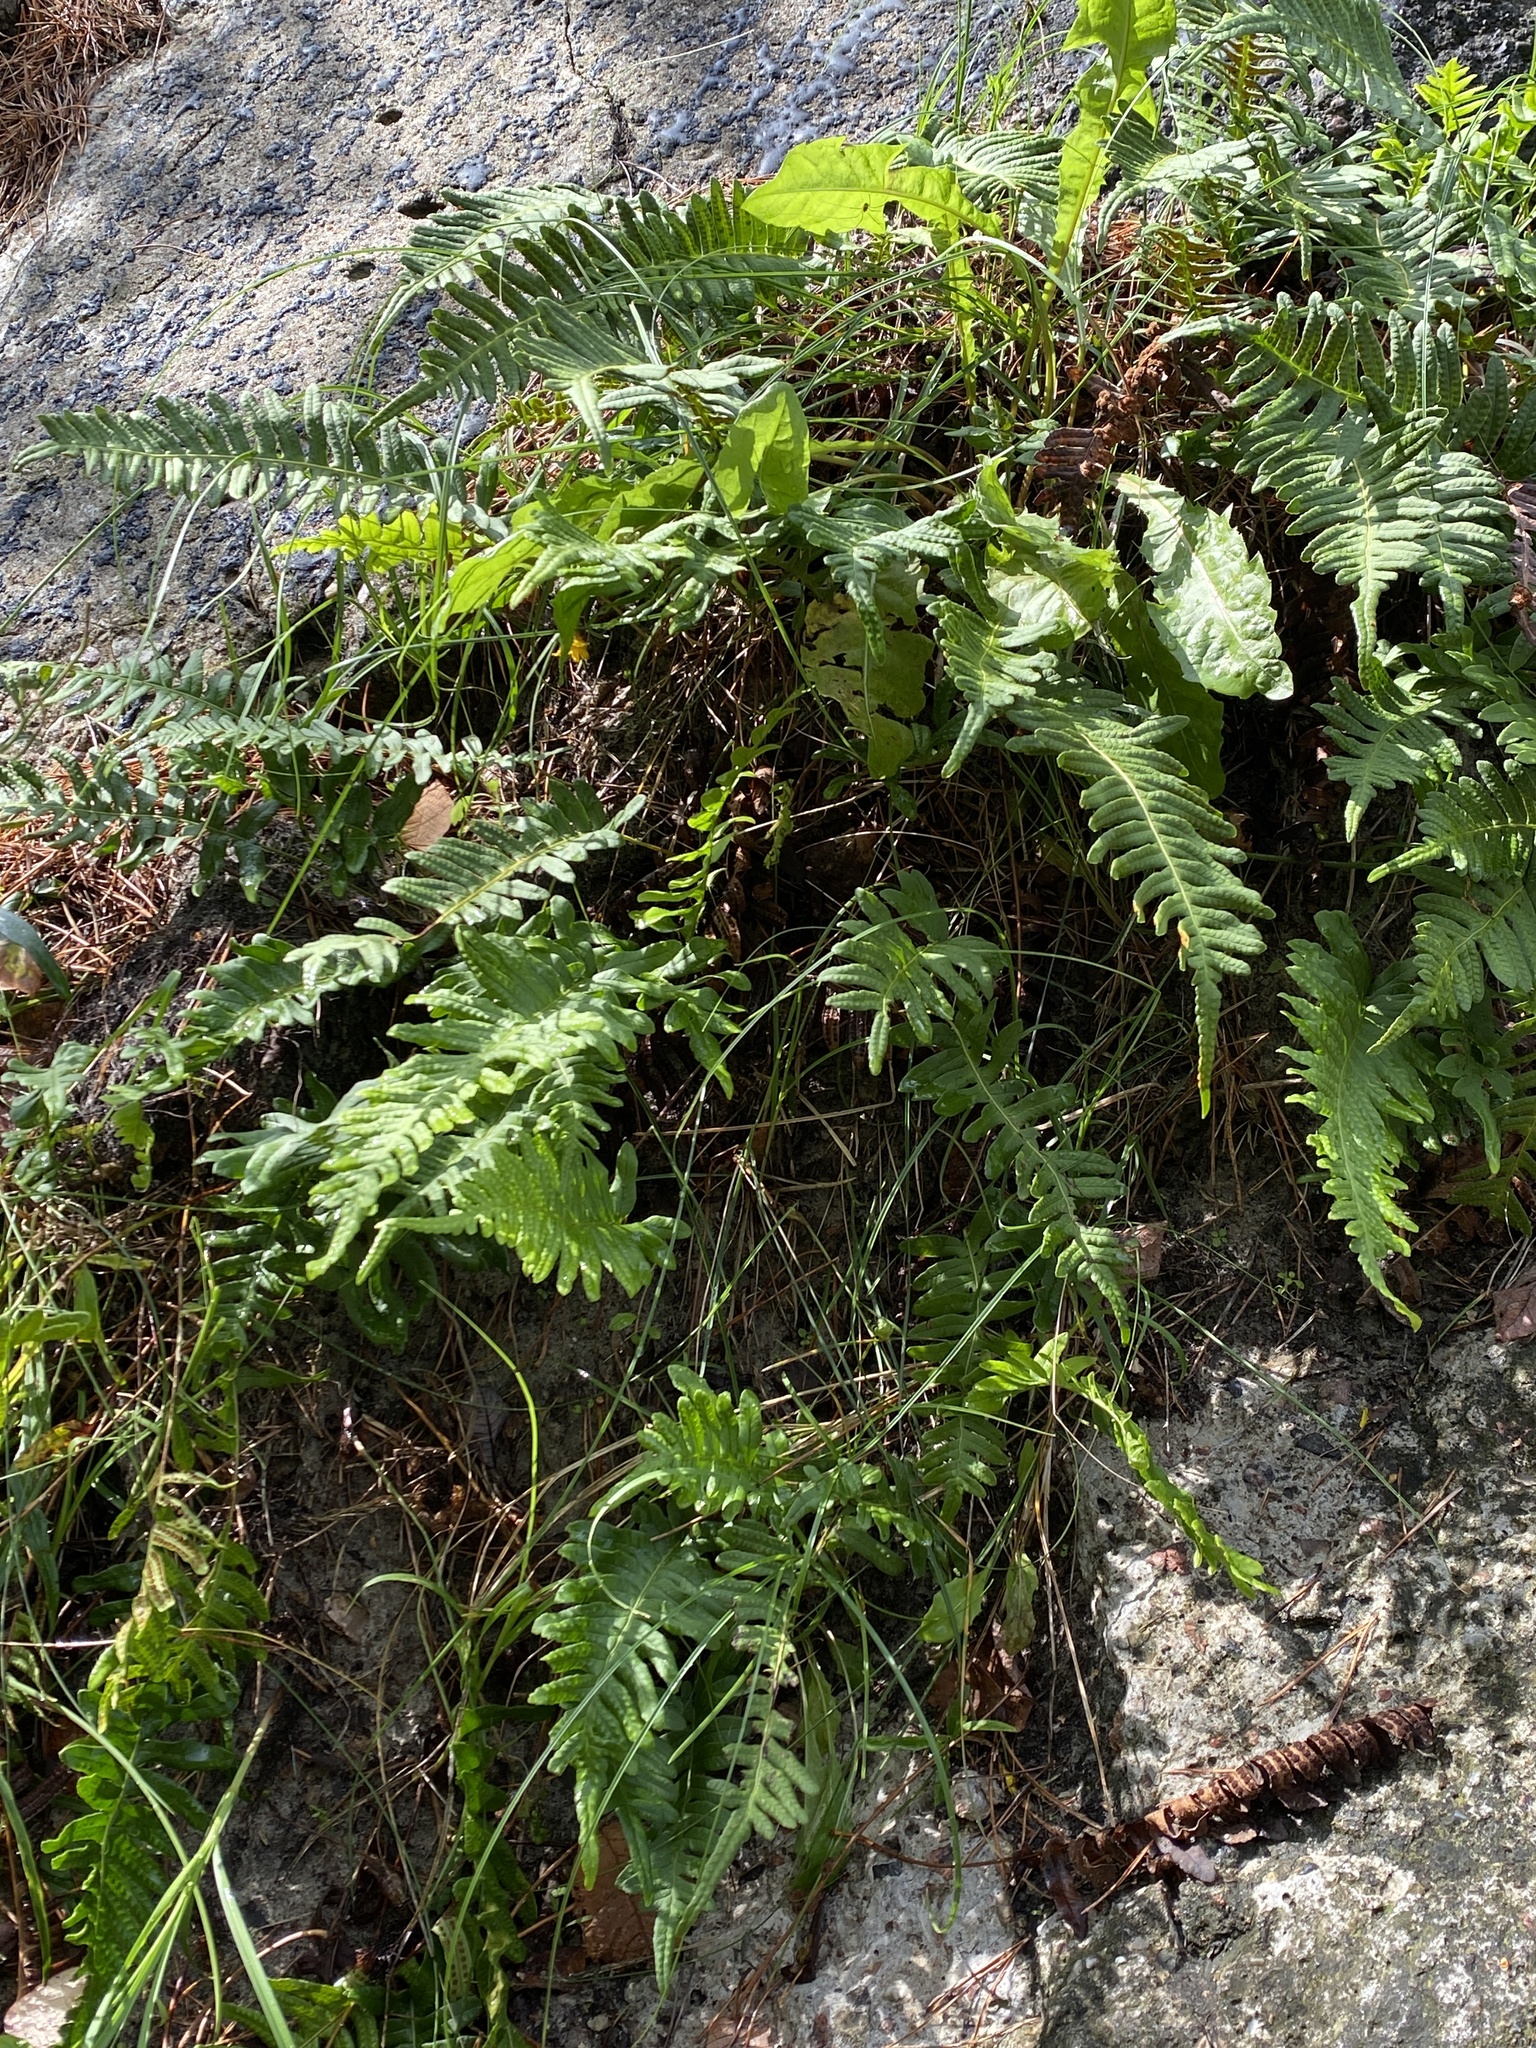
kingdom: Plantae
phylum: Tracheophyta
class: Polypodiopsida
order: Polypodiales
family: Polypodiaceae
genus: Polypodium
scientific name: Polypodium vulgare
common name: Common polypody
